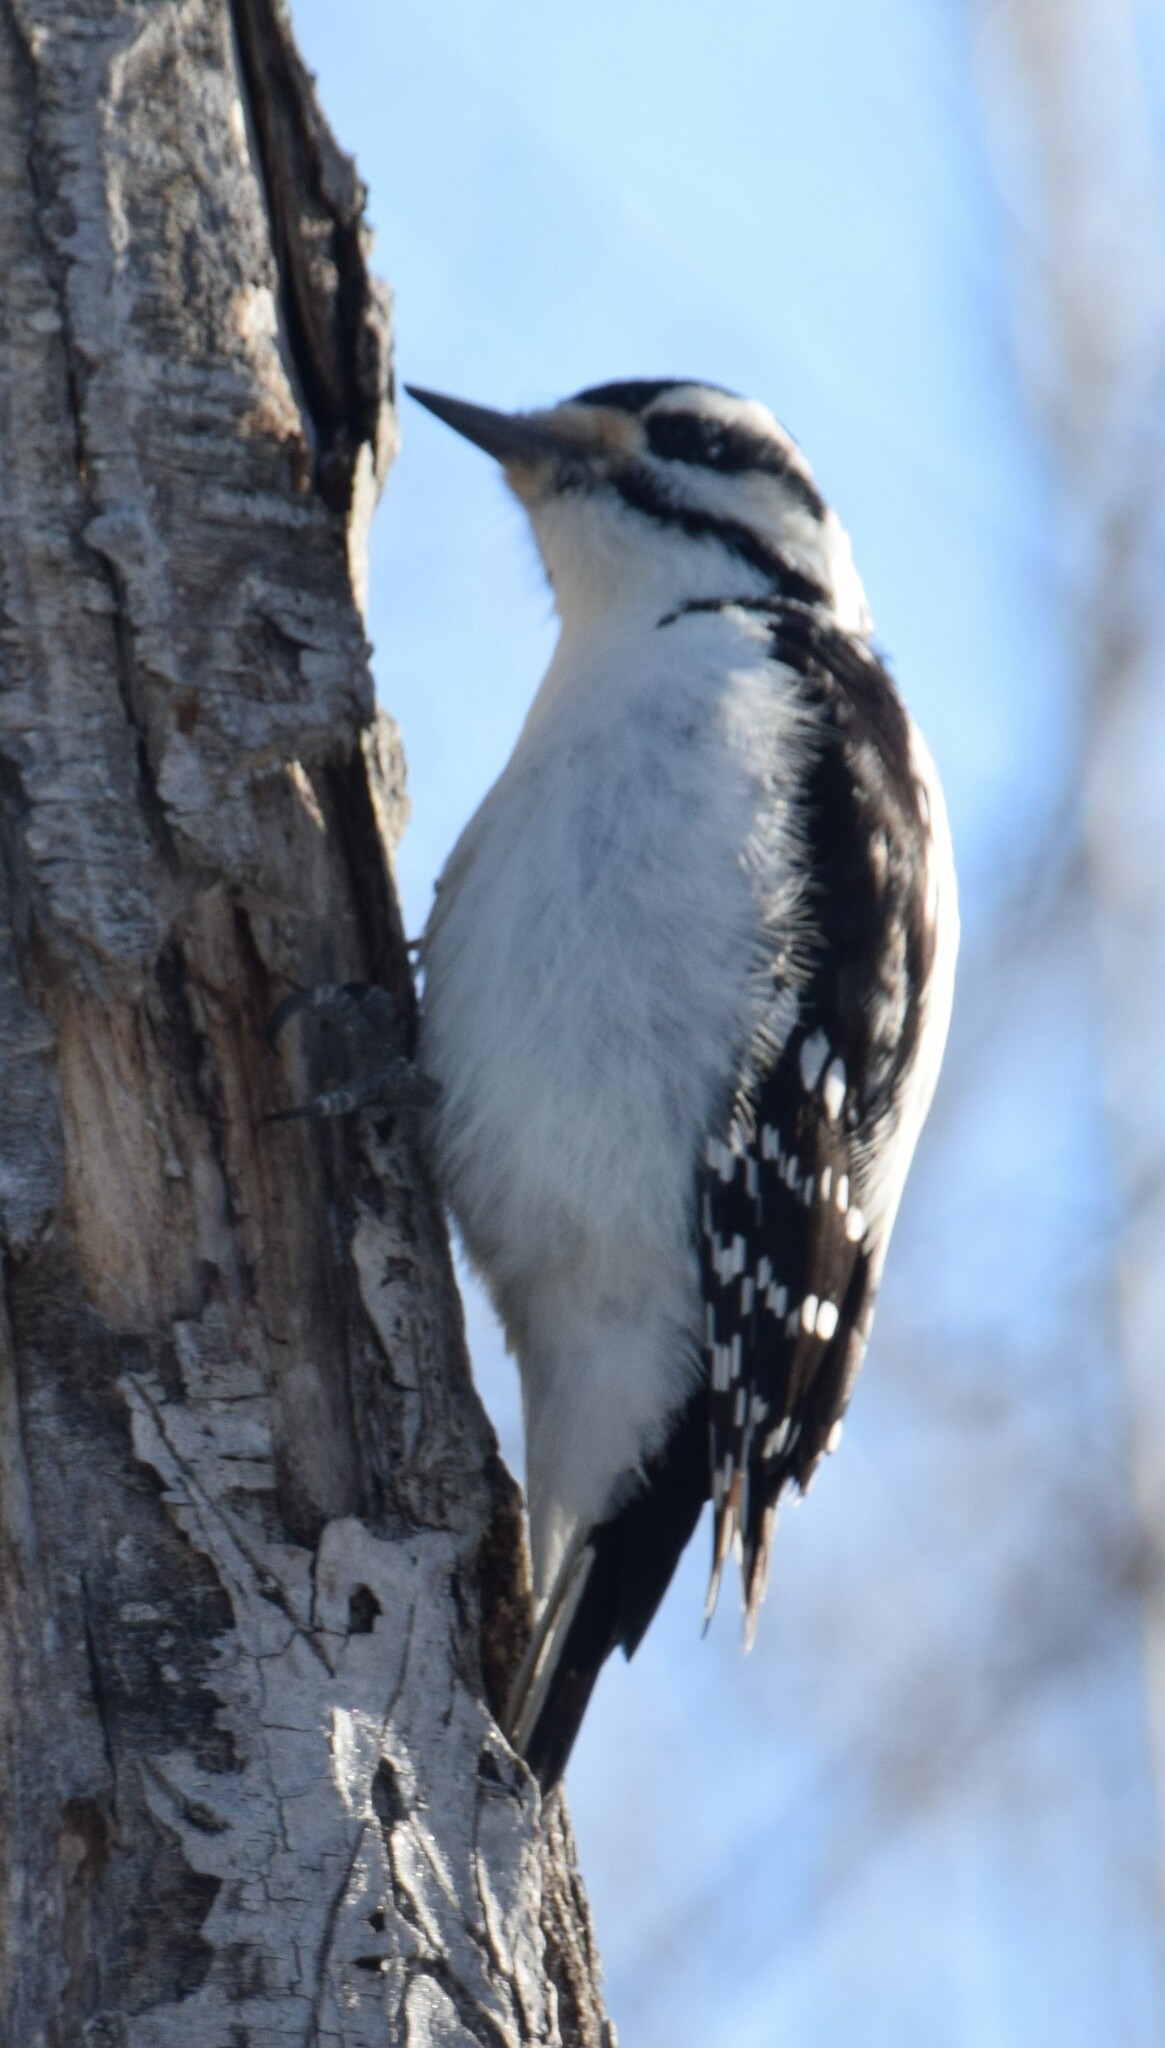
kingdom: Animalia
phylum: Chordata
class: Aves
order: Piciformes
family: Picidae
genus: Leuconotopicus
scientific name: Leuconotopicus villosus
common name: Hairy woodpecker
